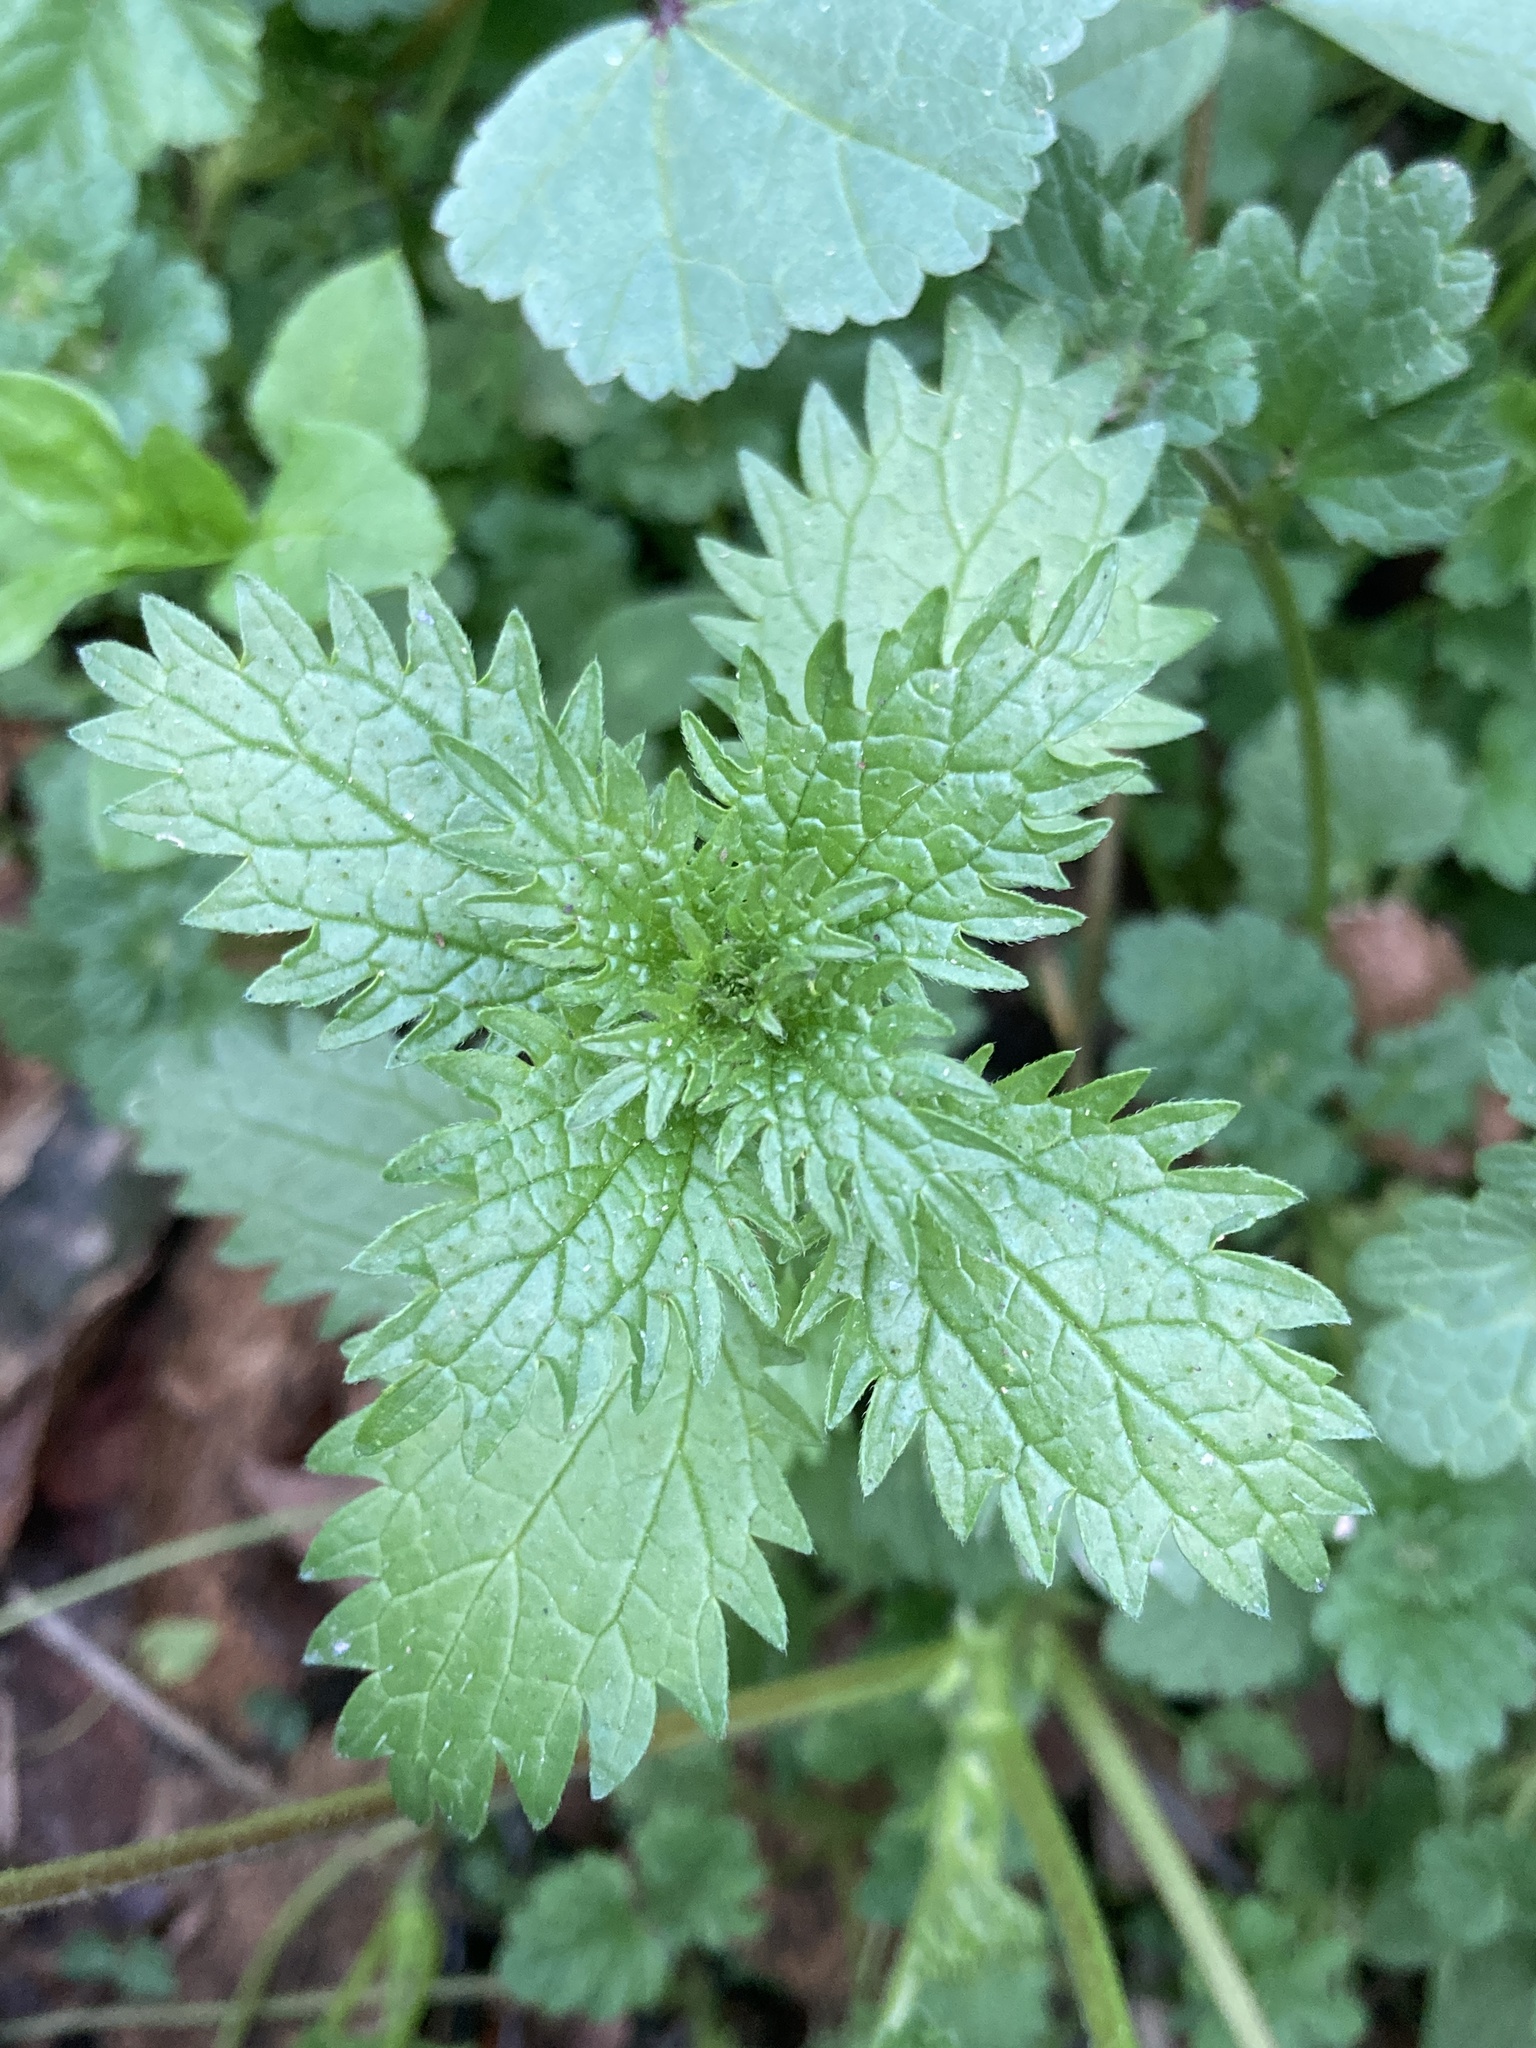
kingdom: Plantae
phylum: Tracheophyta
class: Magnoliopsida
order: Rosales
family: Urticaceae
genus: Urtica
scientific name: Urtica urens
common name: Dwarf nettle
